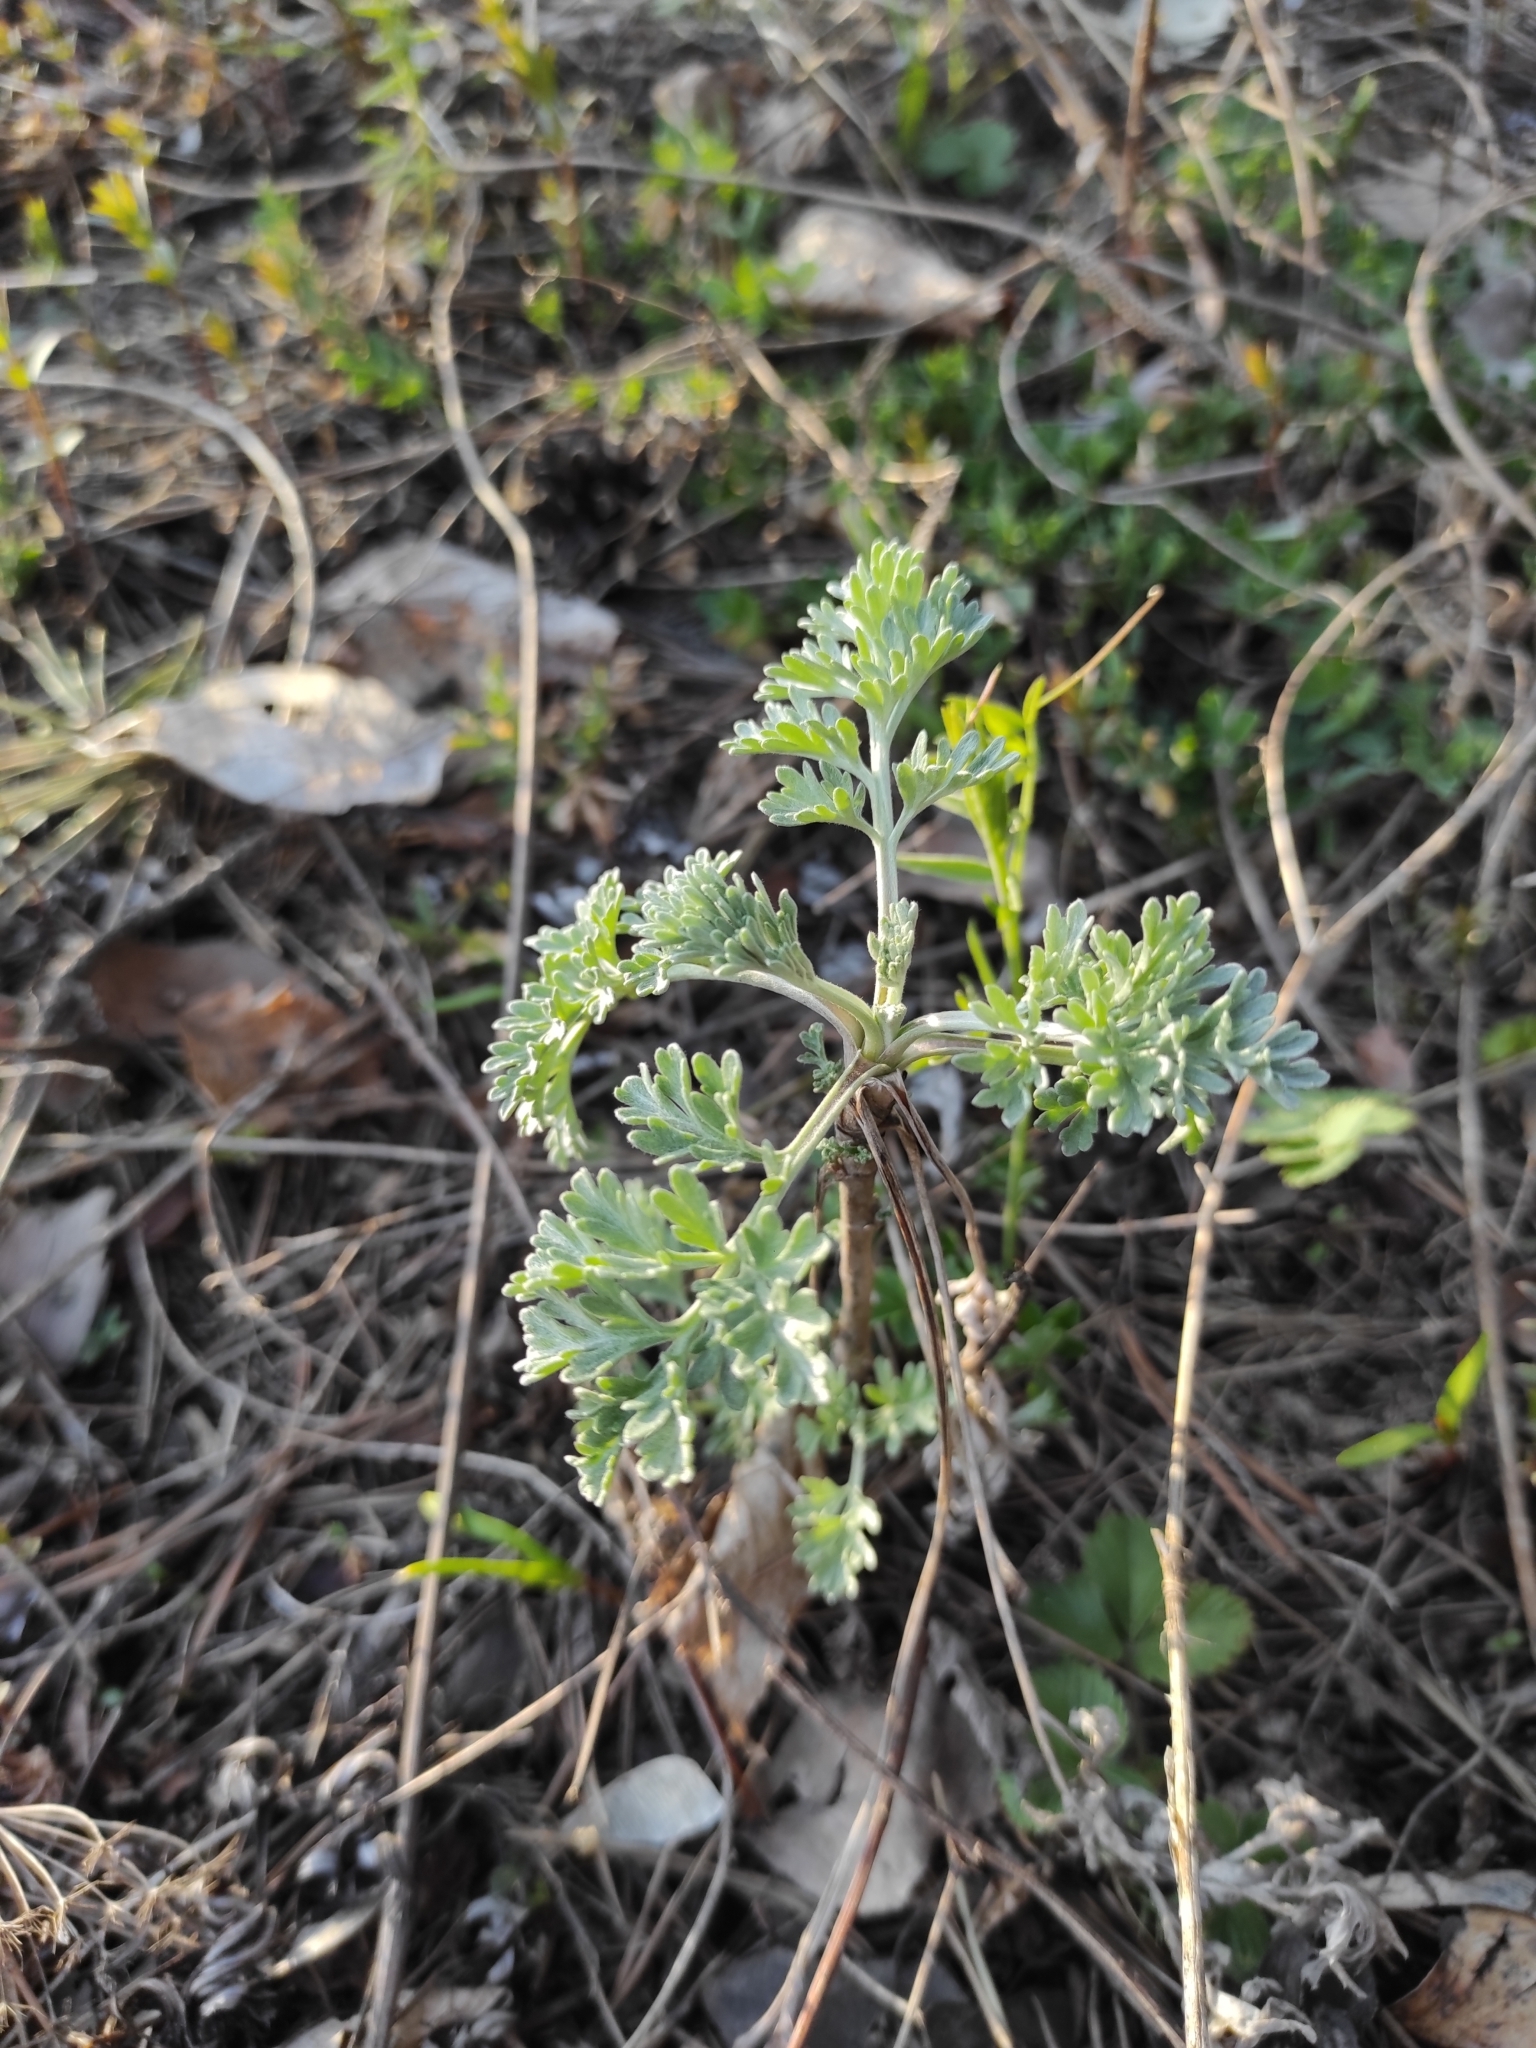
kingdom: Plantae
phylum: Tracheophyta
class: Magnoliopsida
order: Asterales
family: Asteraceae
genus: Artemisia
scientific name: Artemisia absinthium
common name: Wormwood
